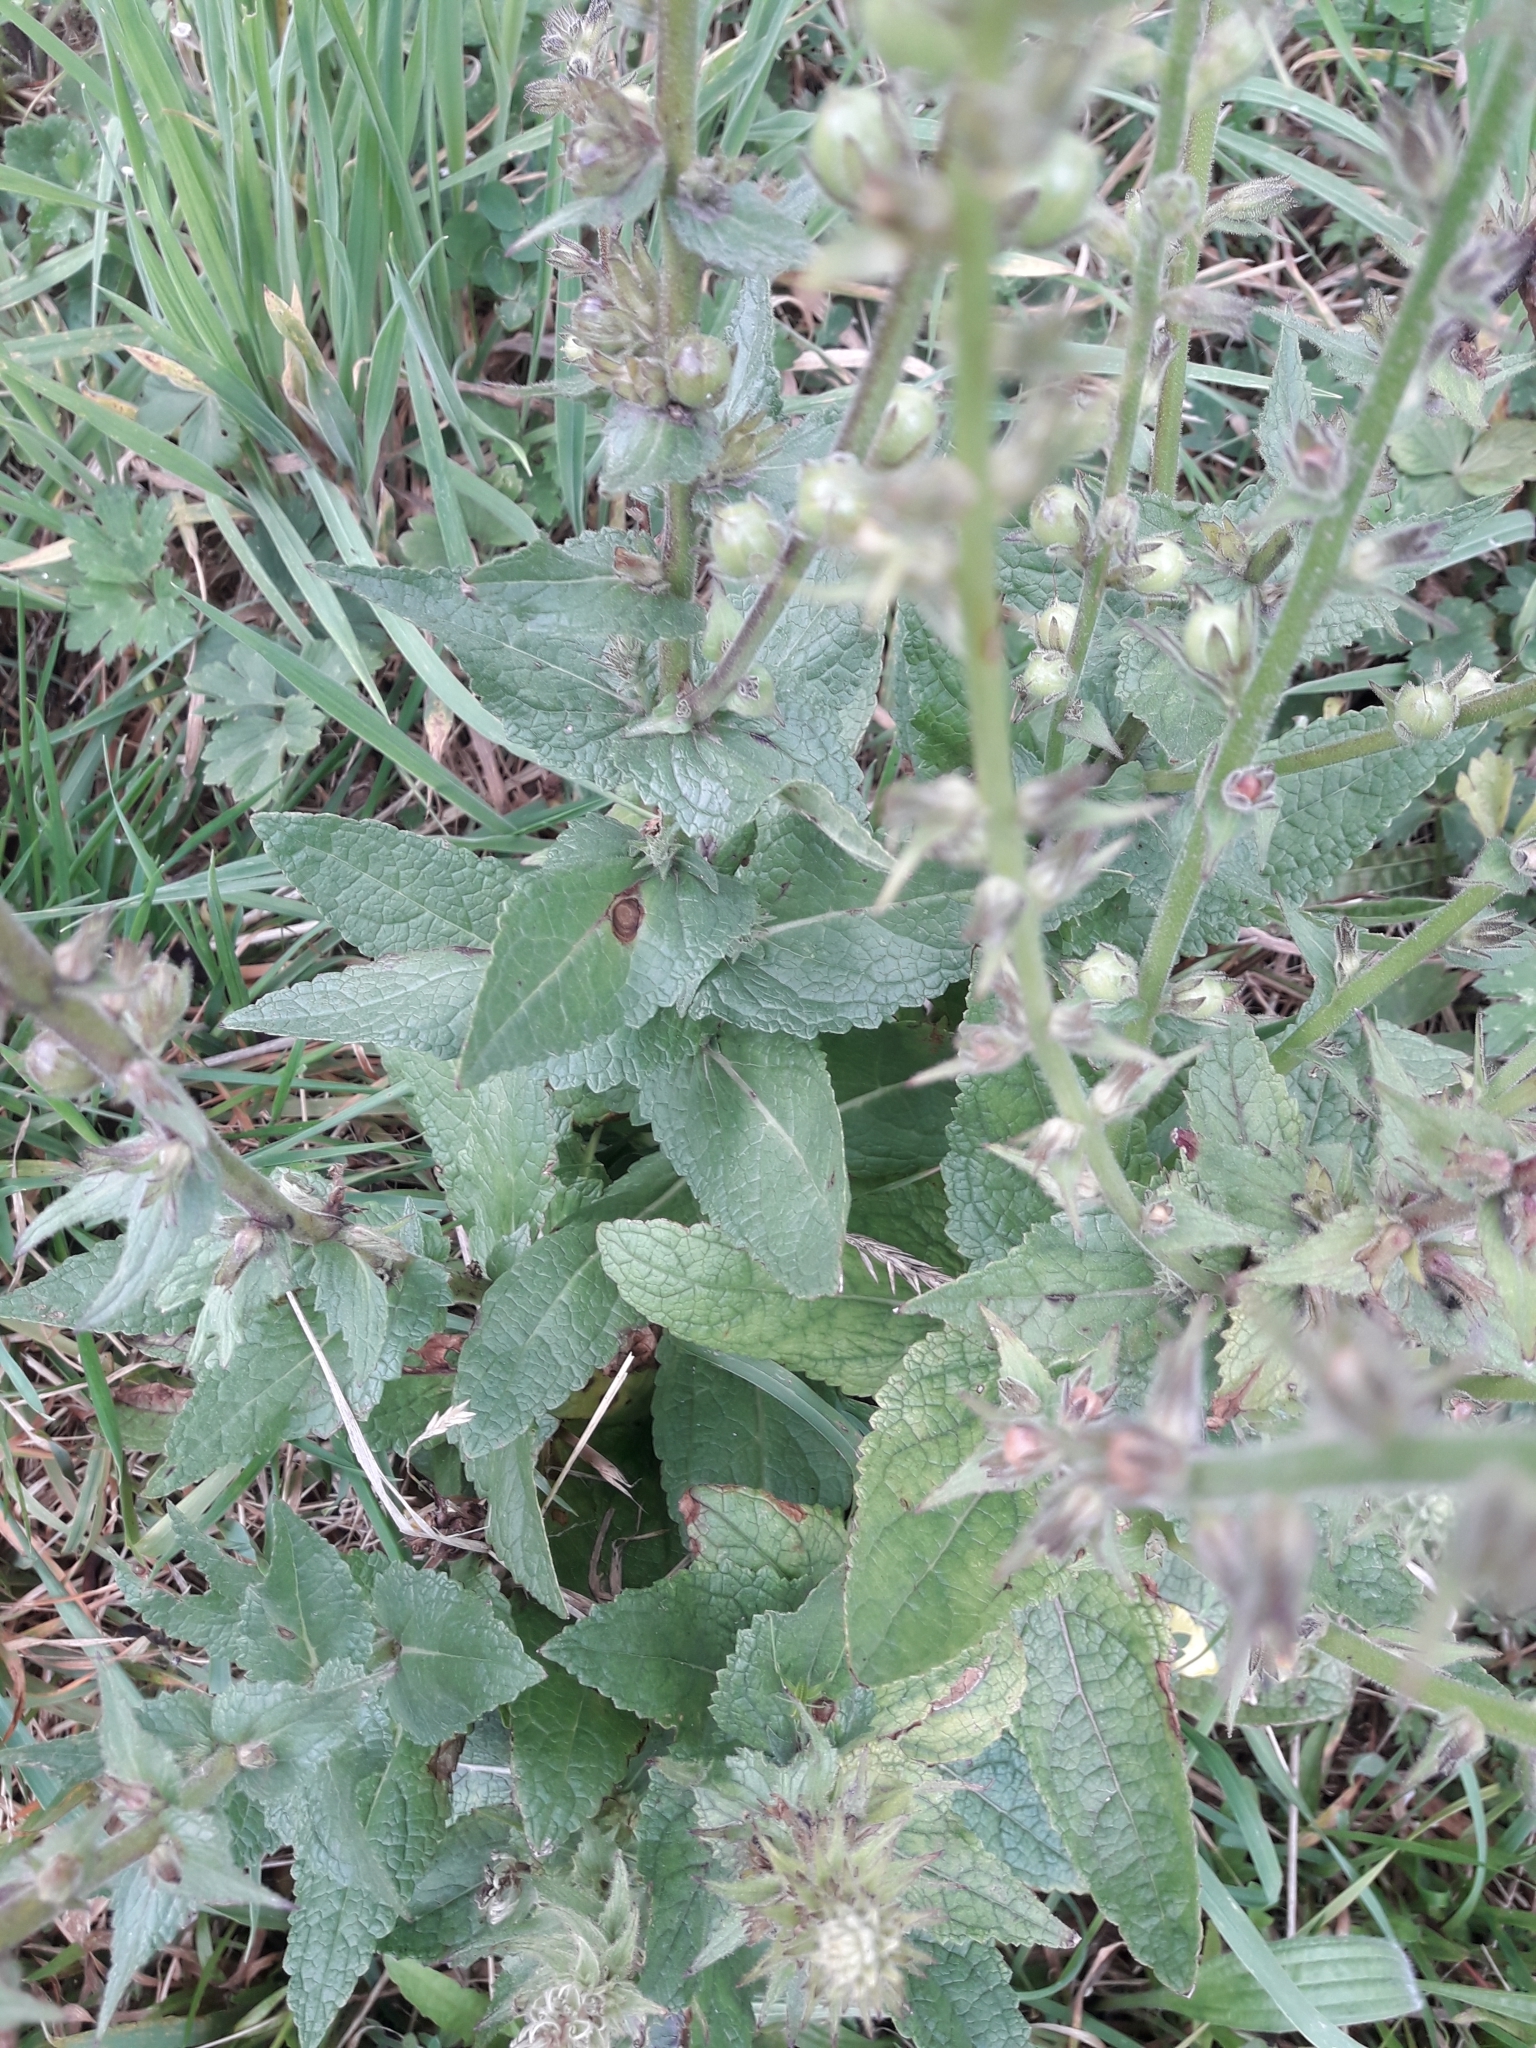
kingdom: Plantae
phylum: Tracheophyta
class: Magnoliopsida
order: Lamiales
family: Scrophulariaceae
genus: Verbascum
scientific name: Verbascum virgatum
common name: Twiggy mullein
